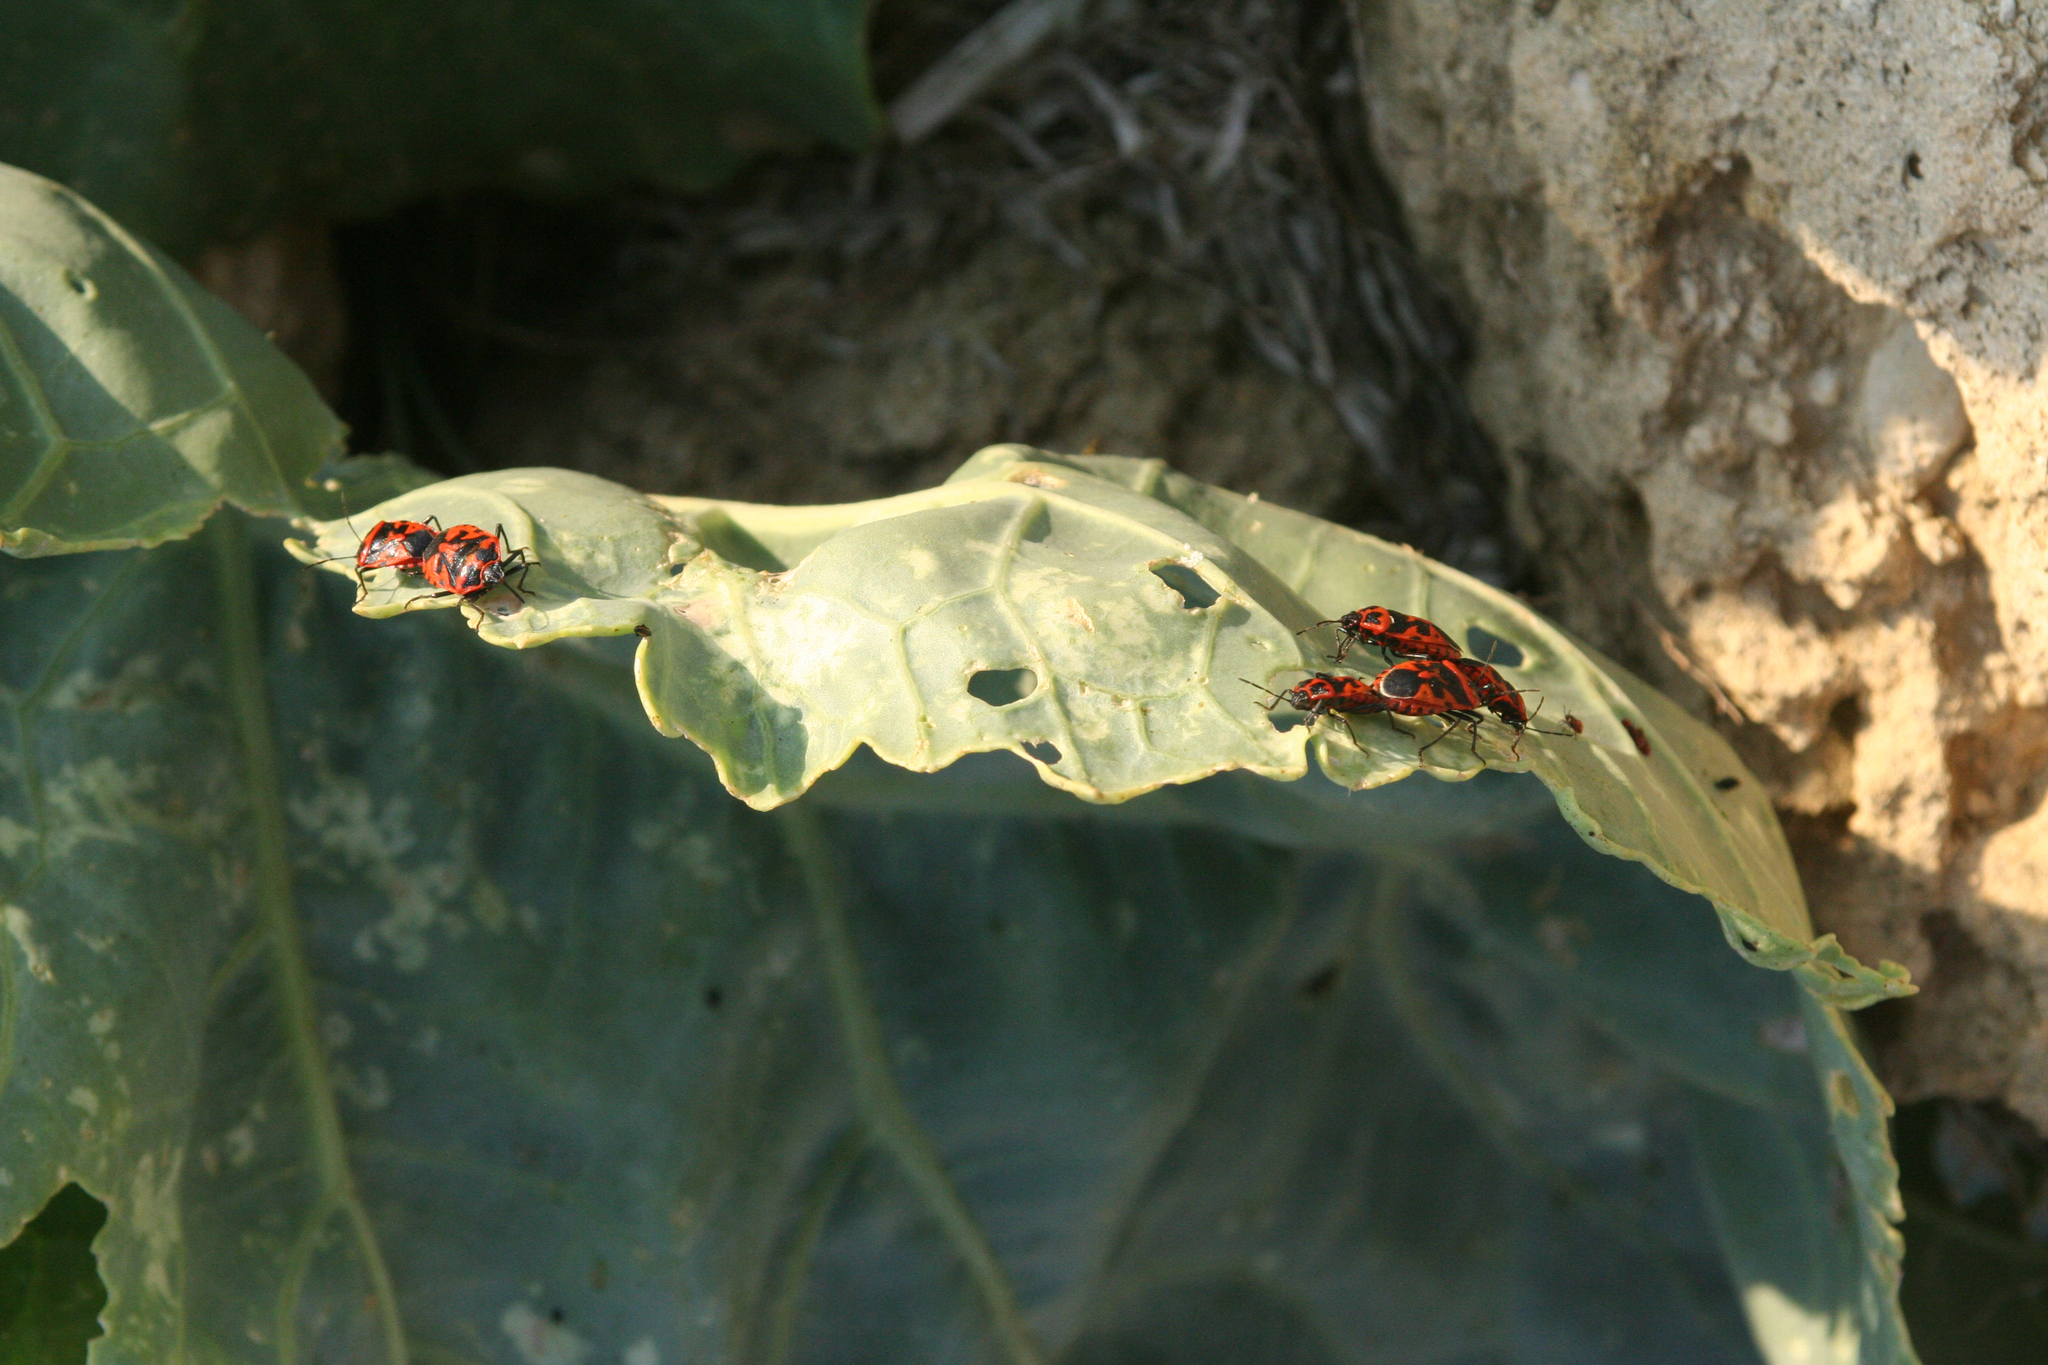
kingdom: Animalia
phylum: Arthropoda
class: Insecta
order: Hemiptera
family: Pentatomidae
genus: Eurydema
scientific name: Eurydema spectabilis
